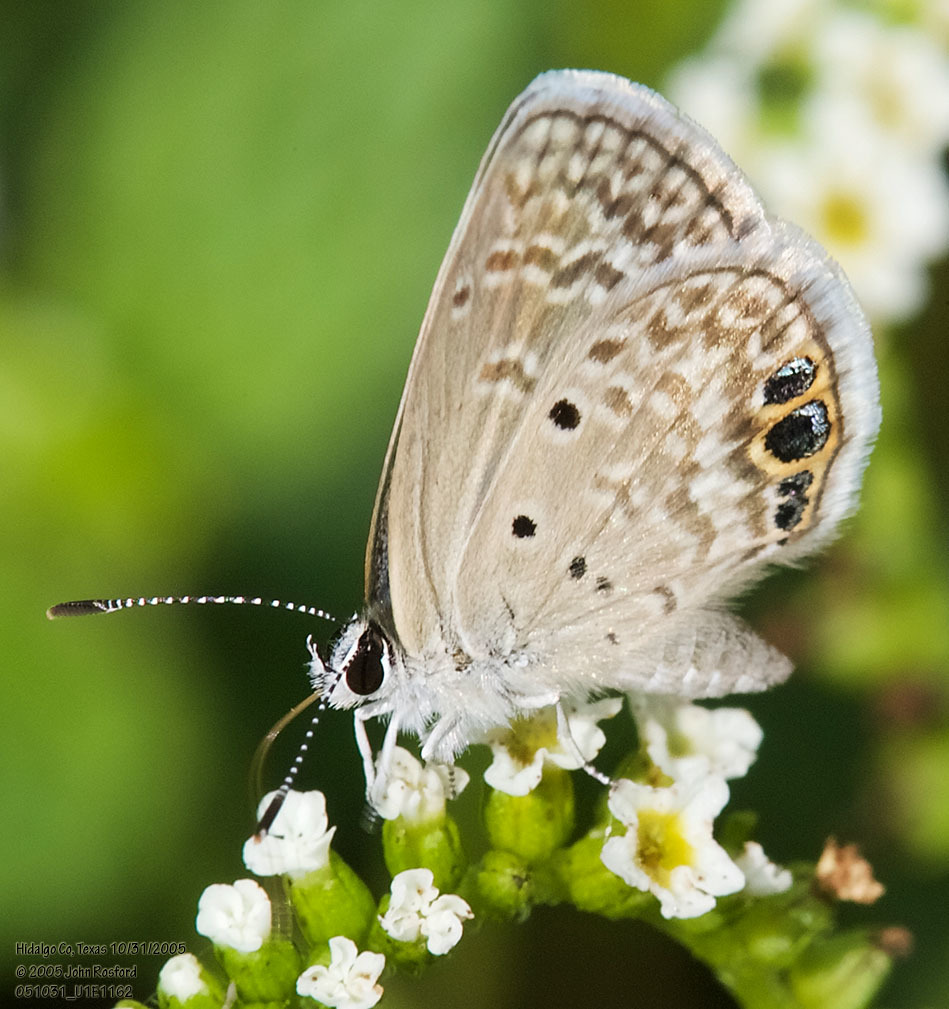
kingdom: Animalia
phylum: Arthropoda
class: Insecta
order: Lepidoptera
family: Lycaenidae
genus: Hemiargus
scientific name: Hemiargus ceraunus
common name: Ceraunus blue
